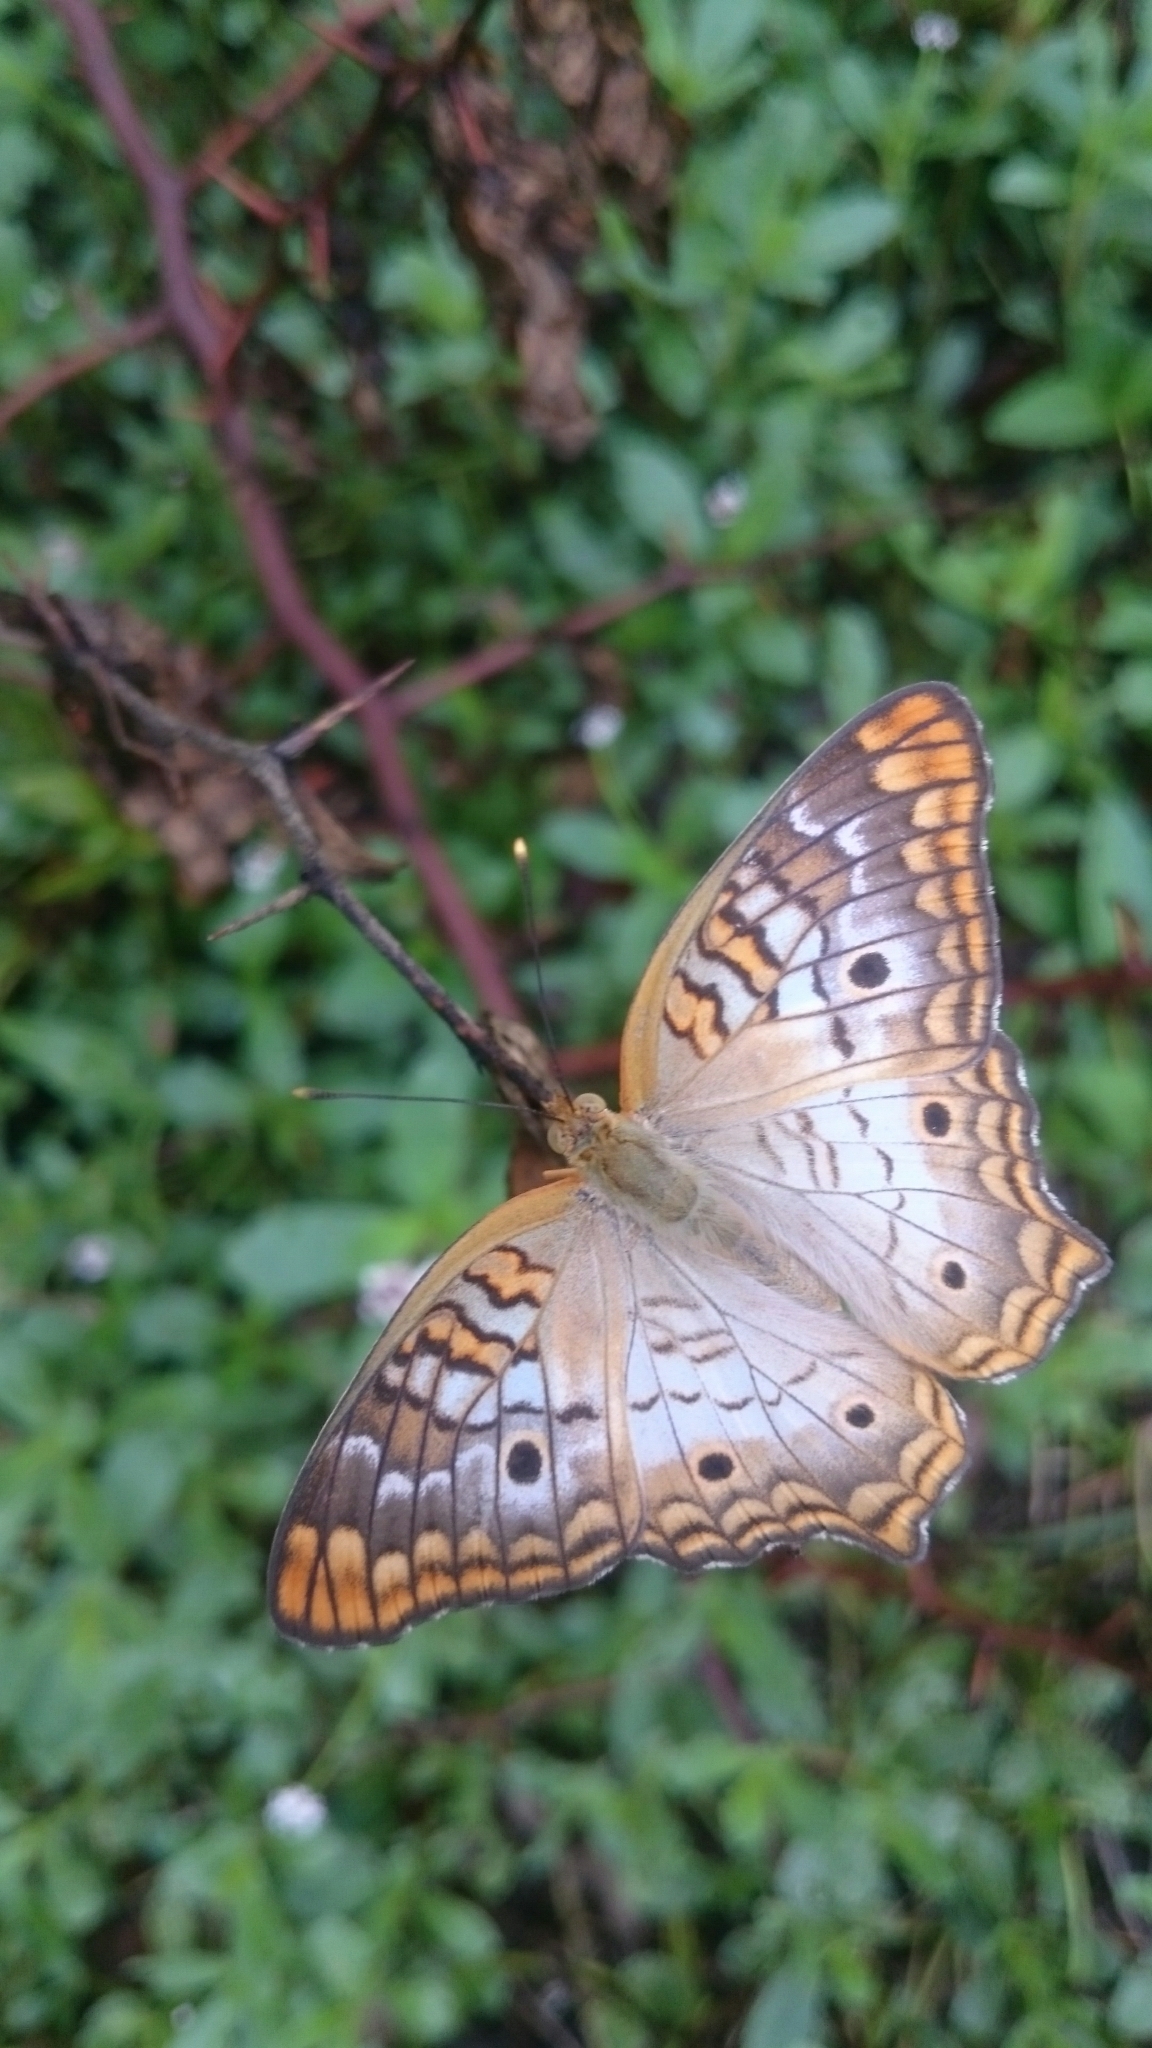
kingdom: Animalia
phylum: Arthropoda
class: Insecta
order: Lepidoptera
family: Nymphalidae
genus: Anartia
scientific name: Anartia jatrophae
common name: White peacock
